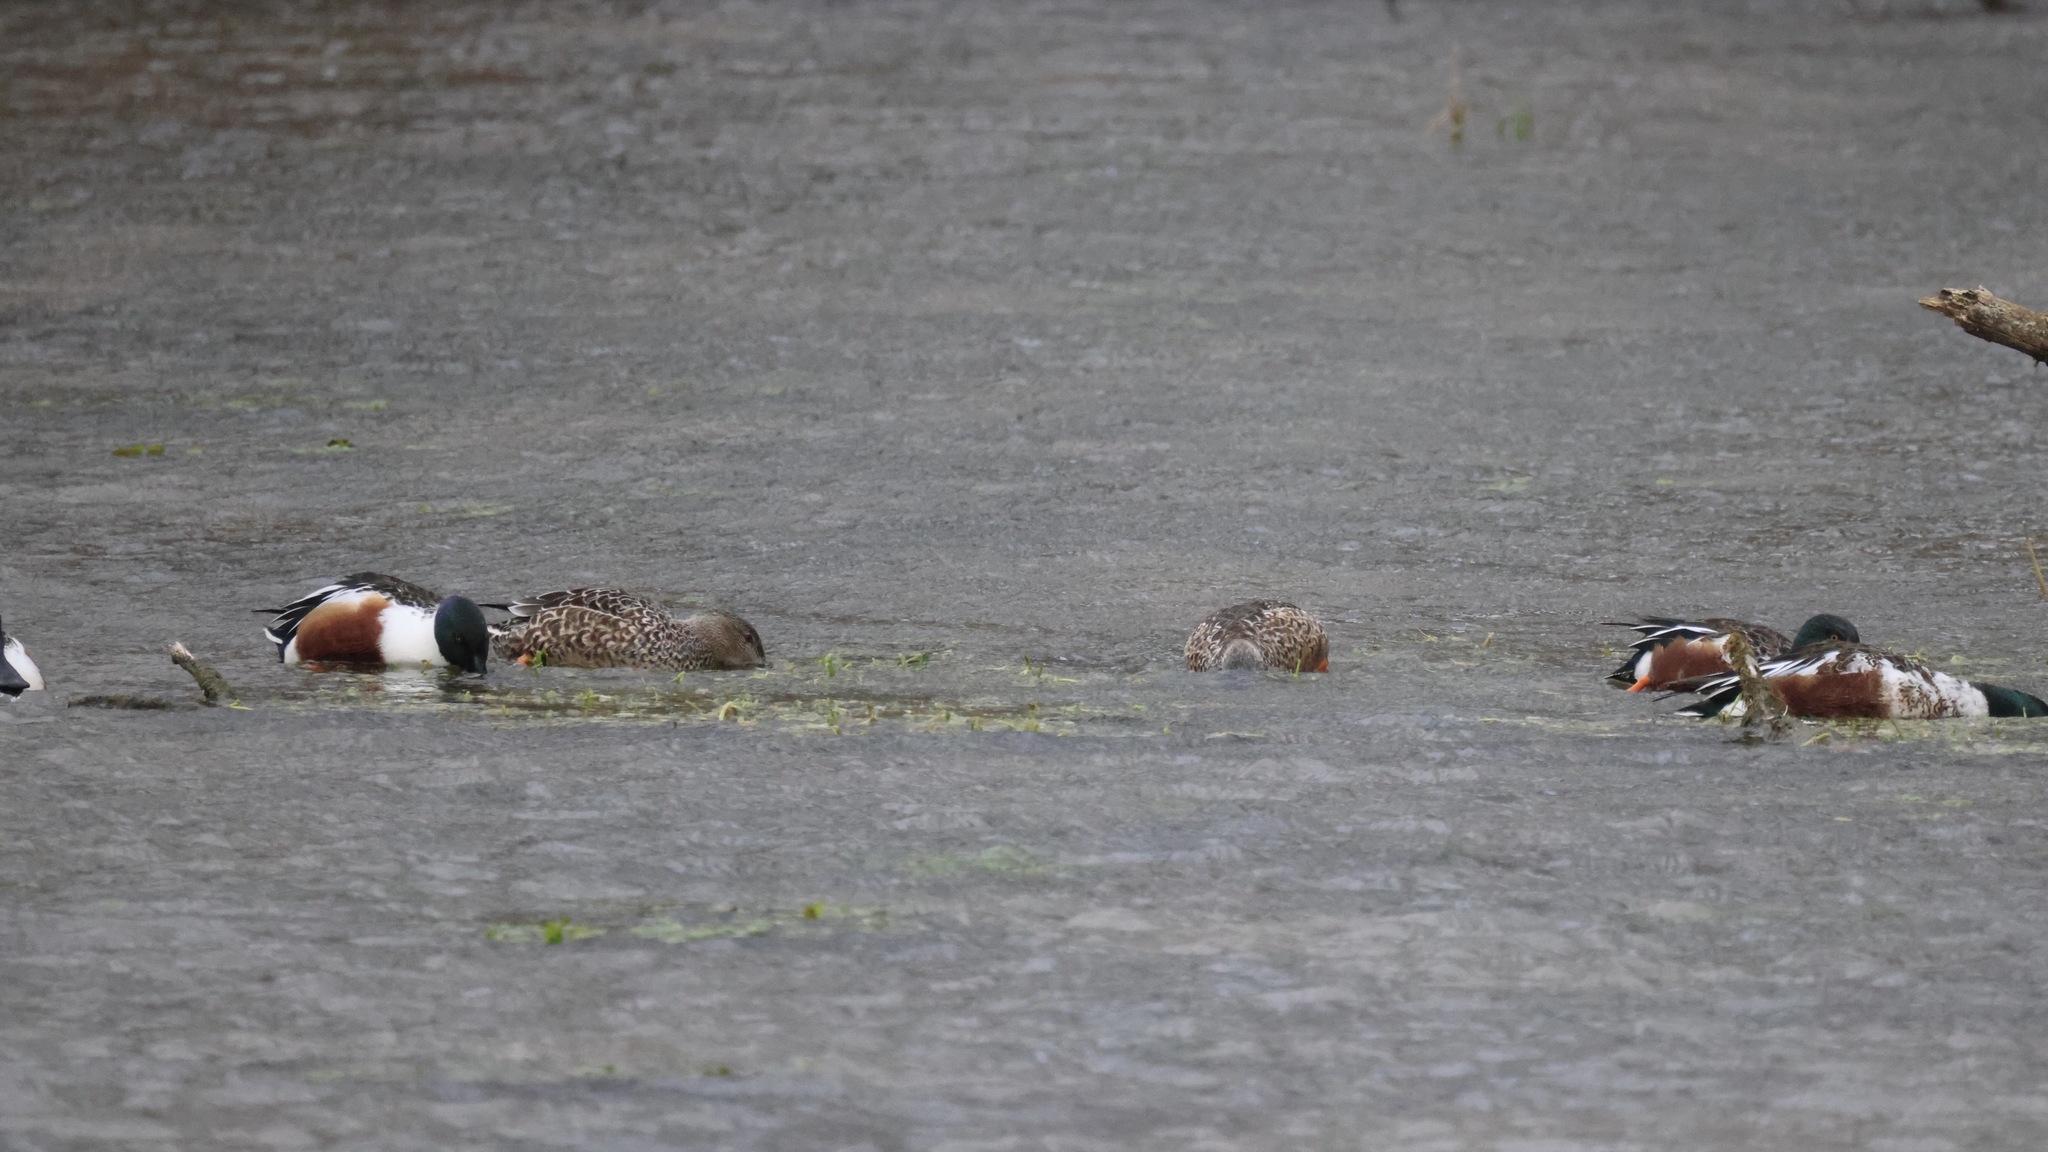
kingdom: Animalia
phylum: Chordata
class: Aves
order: Anseriformes
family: Anatidae
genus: Spatula
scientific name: Spatula clypeata
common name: Northern shoveler
